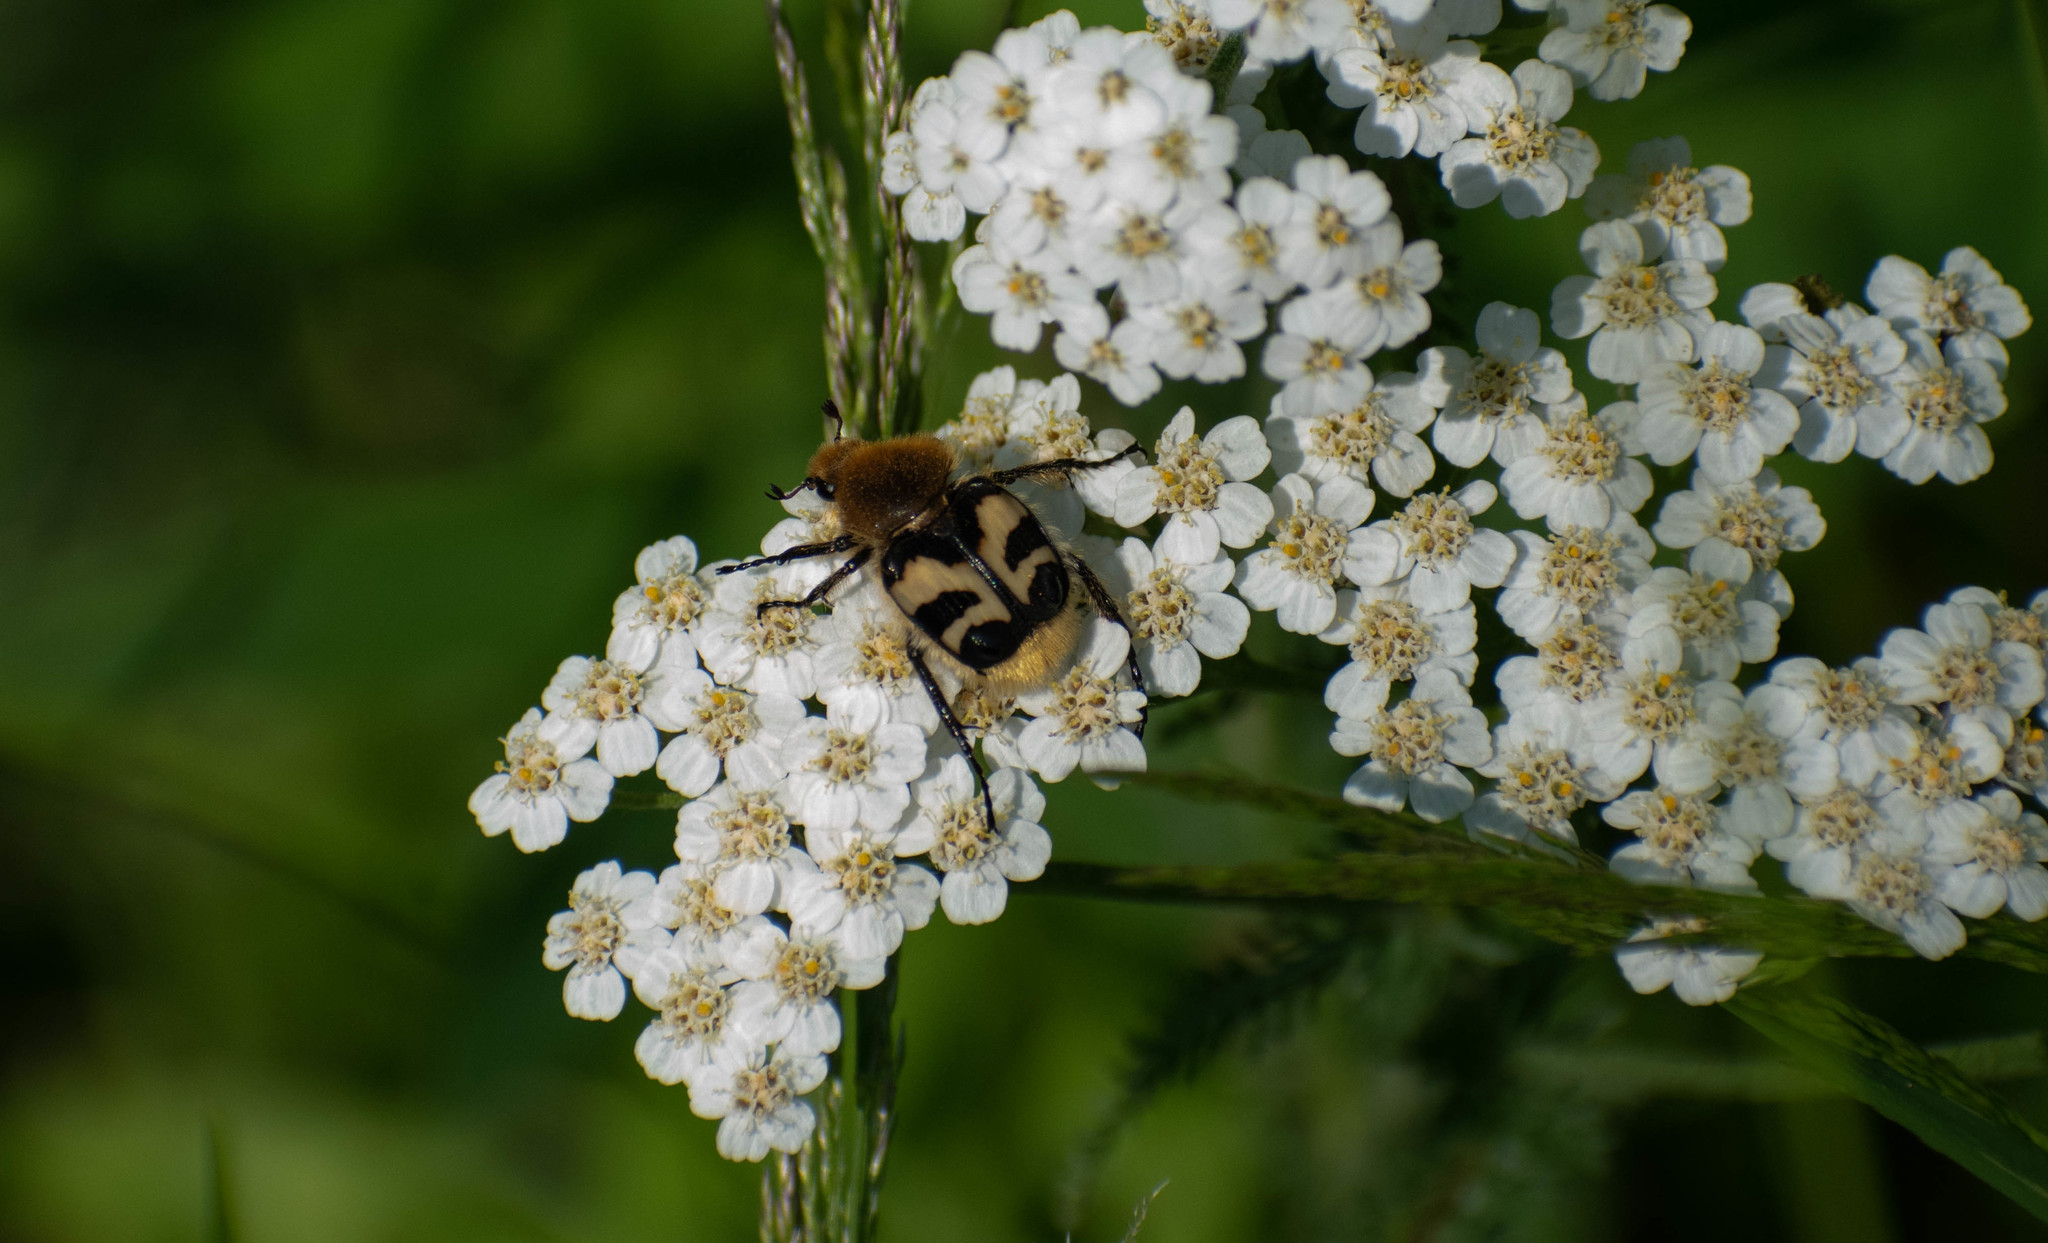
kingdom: Animalia
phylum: Arthropoda
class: Insecta
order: Coleoptera
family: Scarabaeidae
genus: Trichius
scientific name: Trichius fasciatus
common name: Bee beetle
